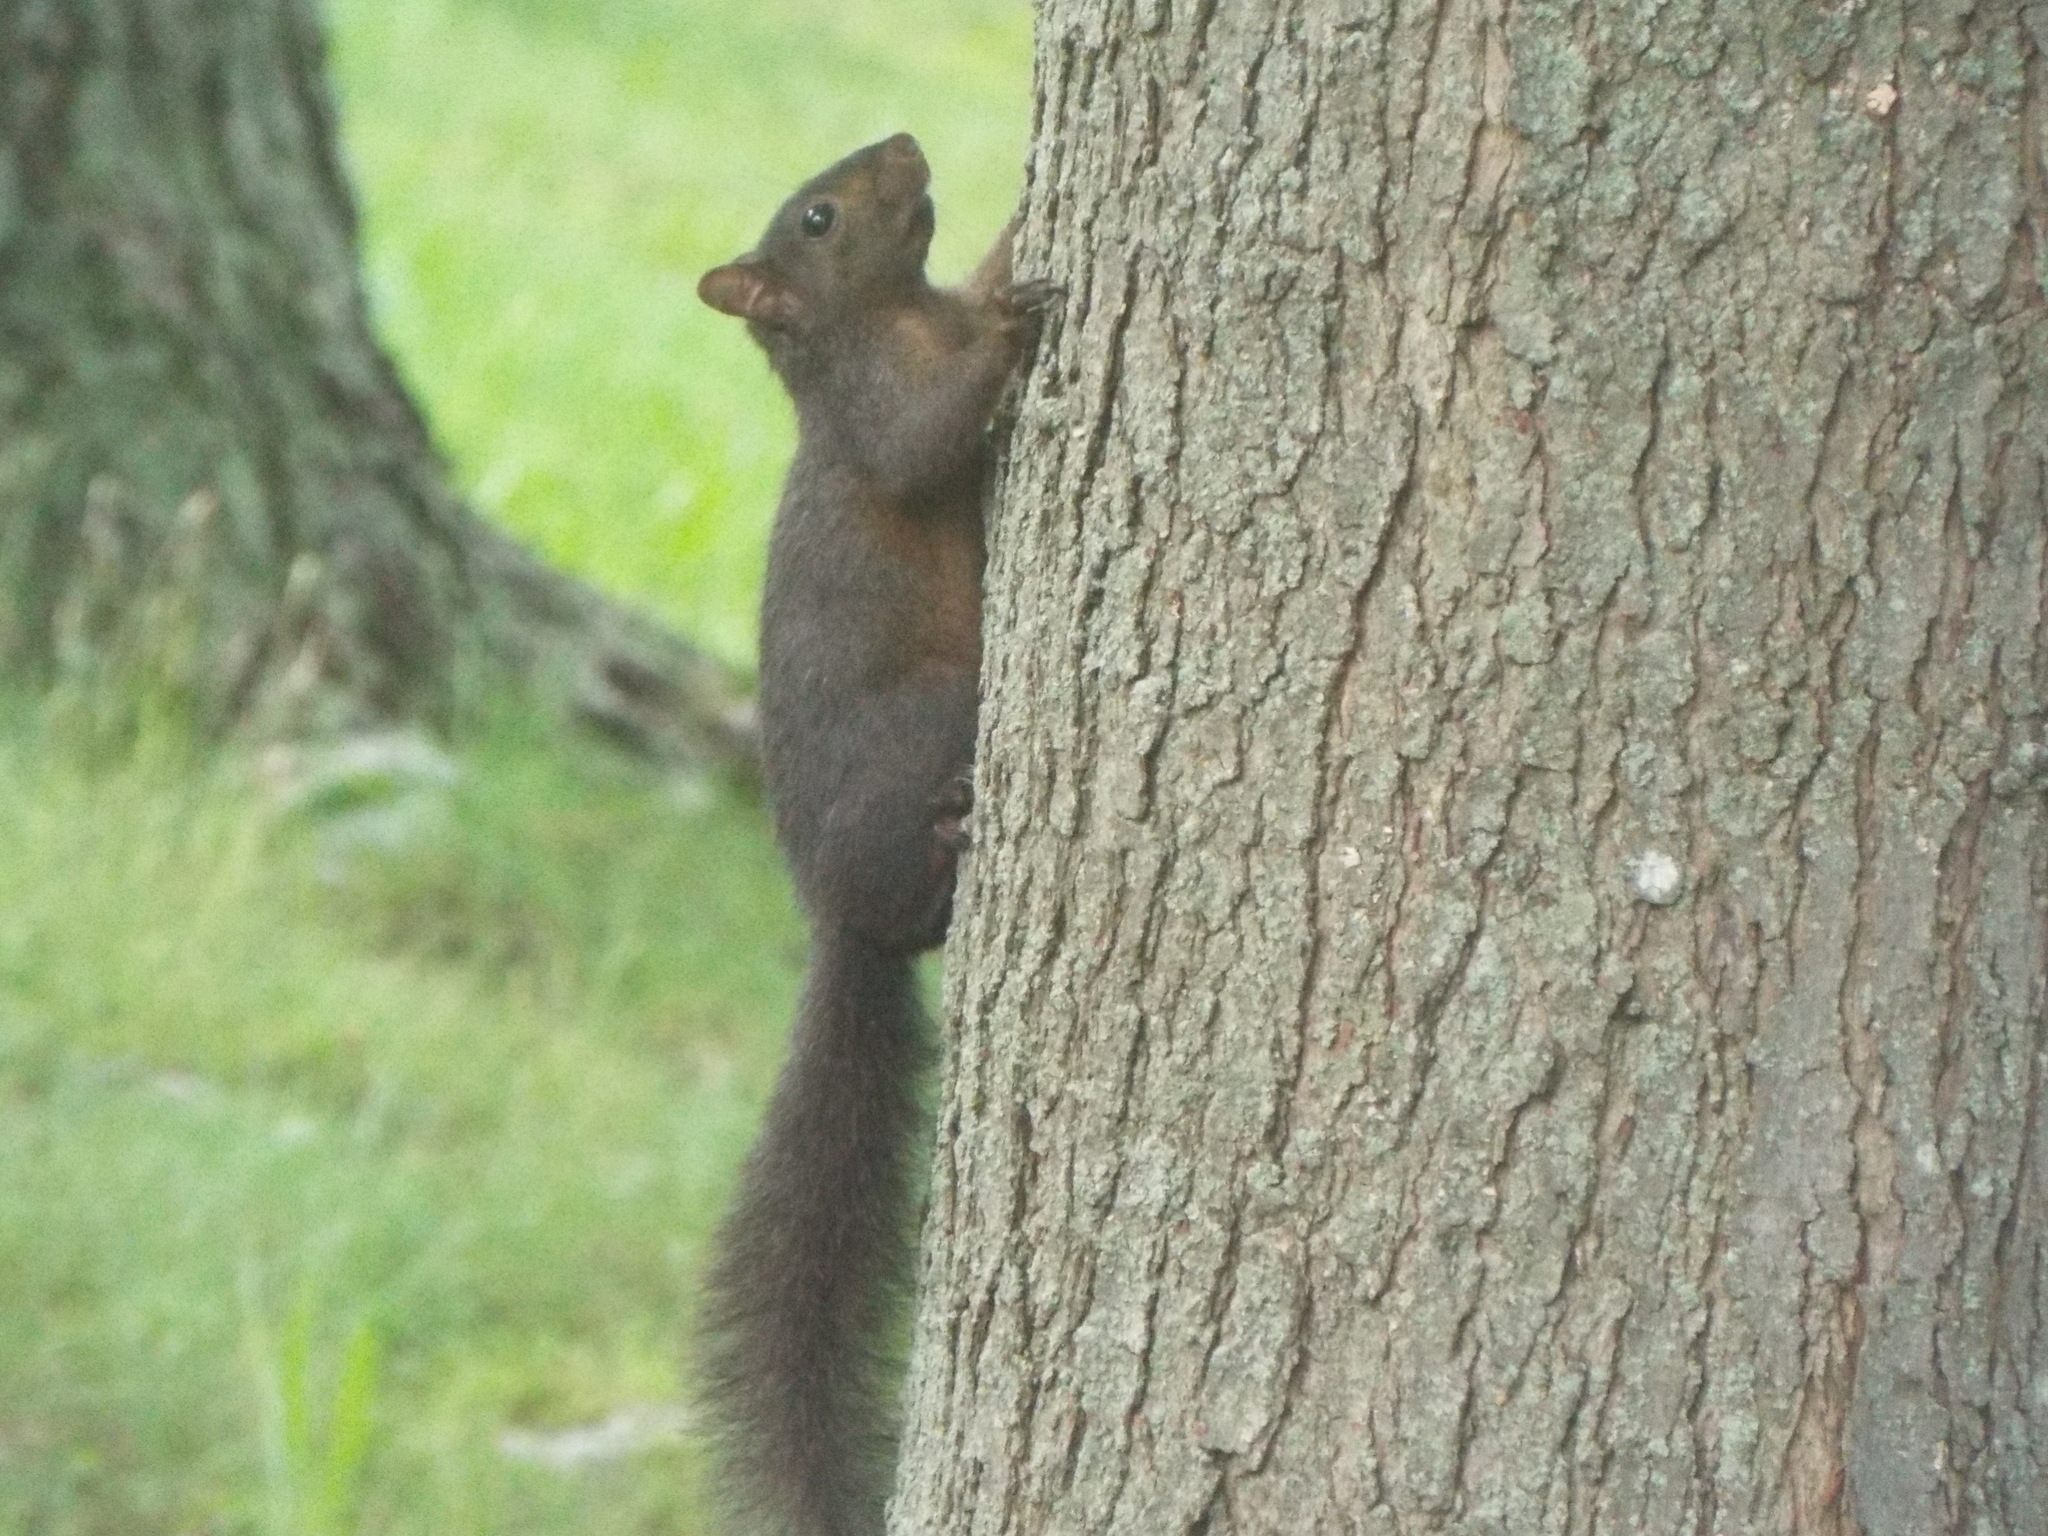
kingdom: Animalia
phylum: Chordata
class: Mammalia
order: Rodentia
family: Sciuridae
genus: Sciurus
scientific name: Sciurus carolinensis
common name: Eastern gray squirrel
